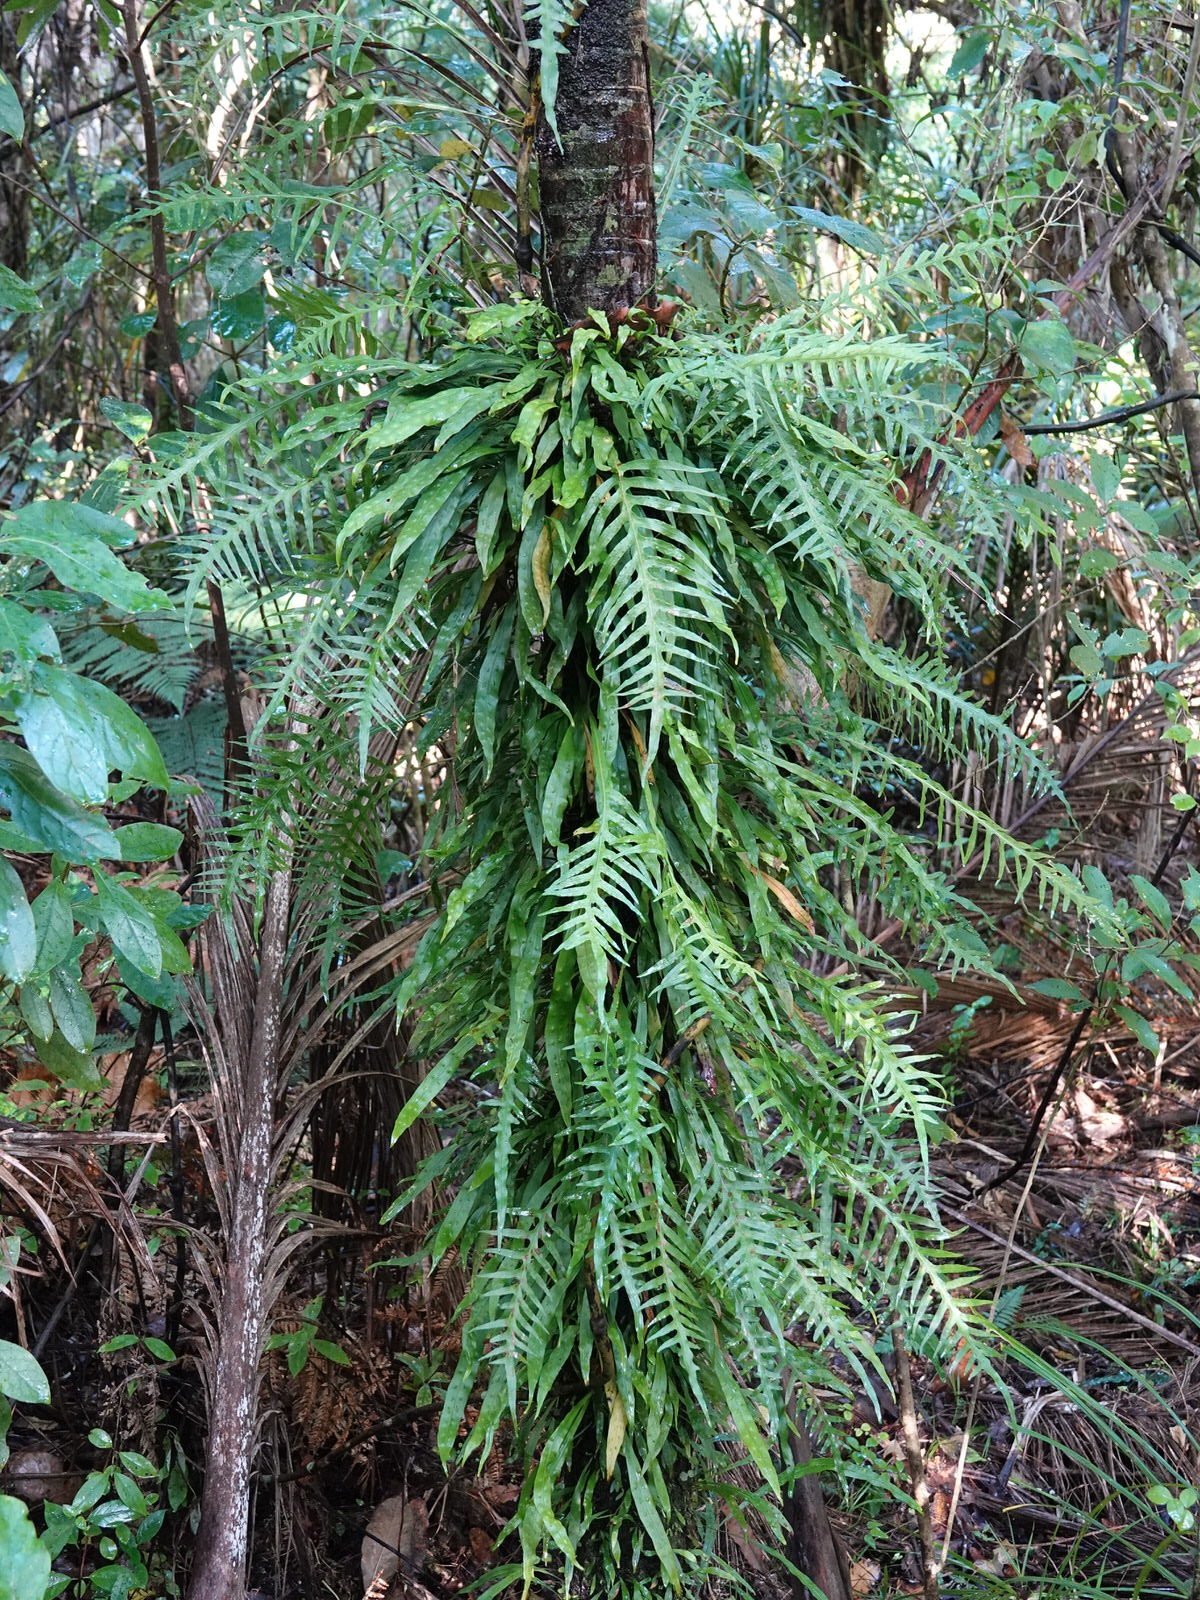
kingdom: Plantae
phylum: Tracheophyta
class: Polypodiopsida
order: Polypodiales
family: Polypodiaceae
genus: Lecanopteris
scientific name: Lecanopteris scandens
